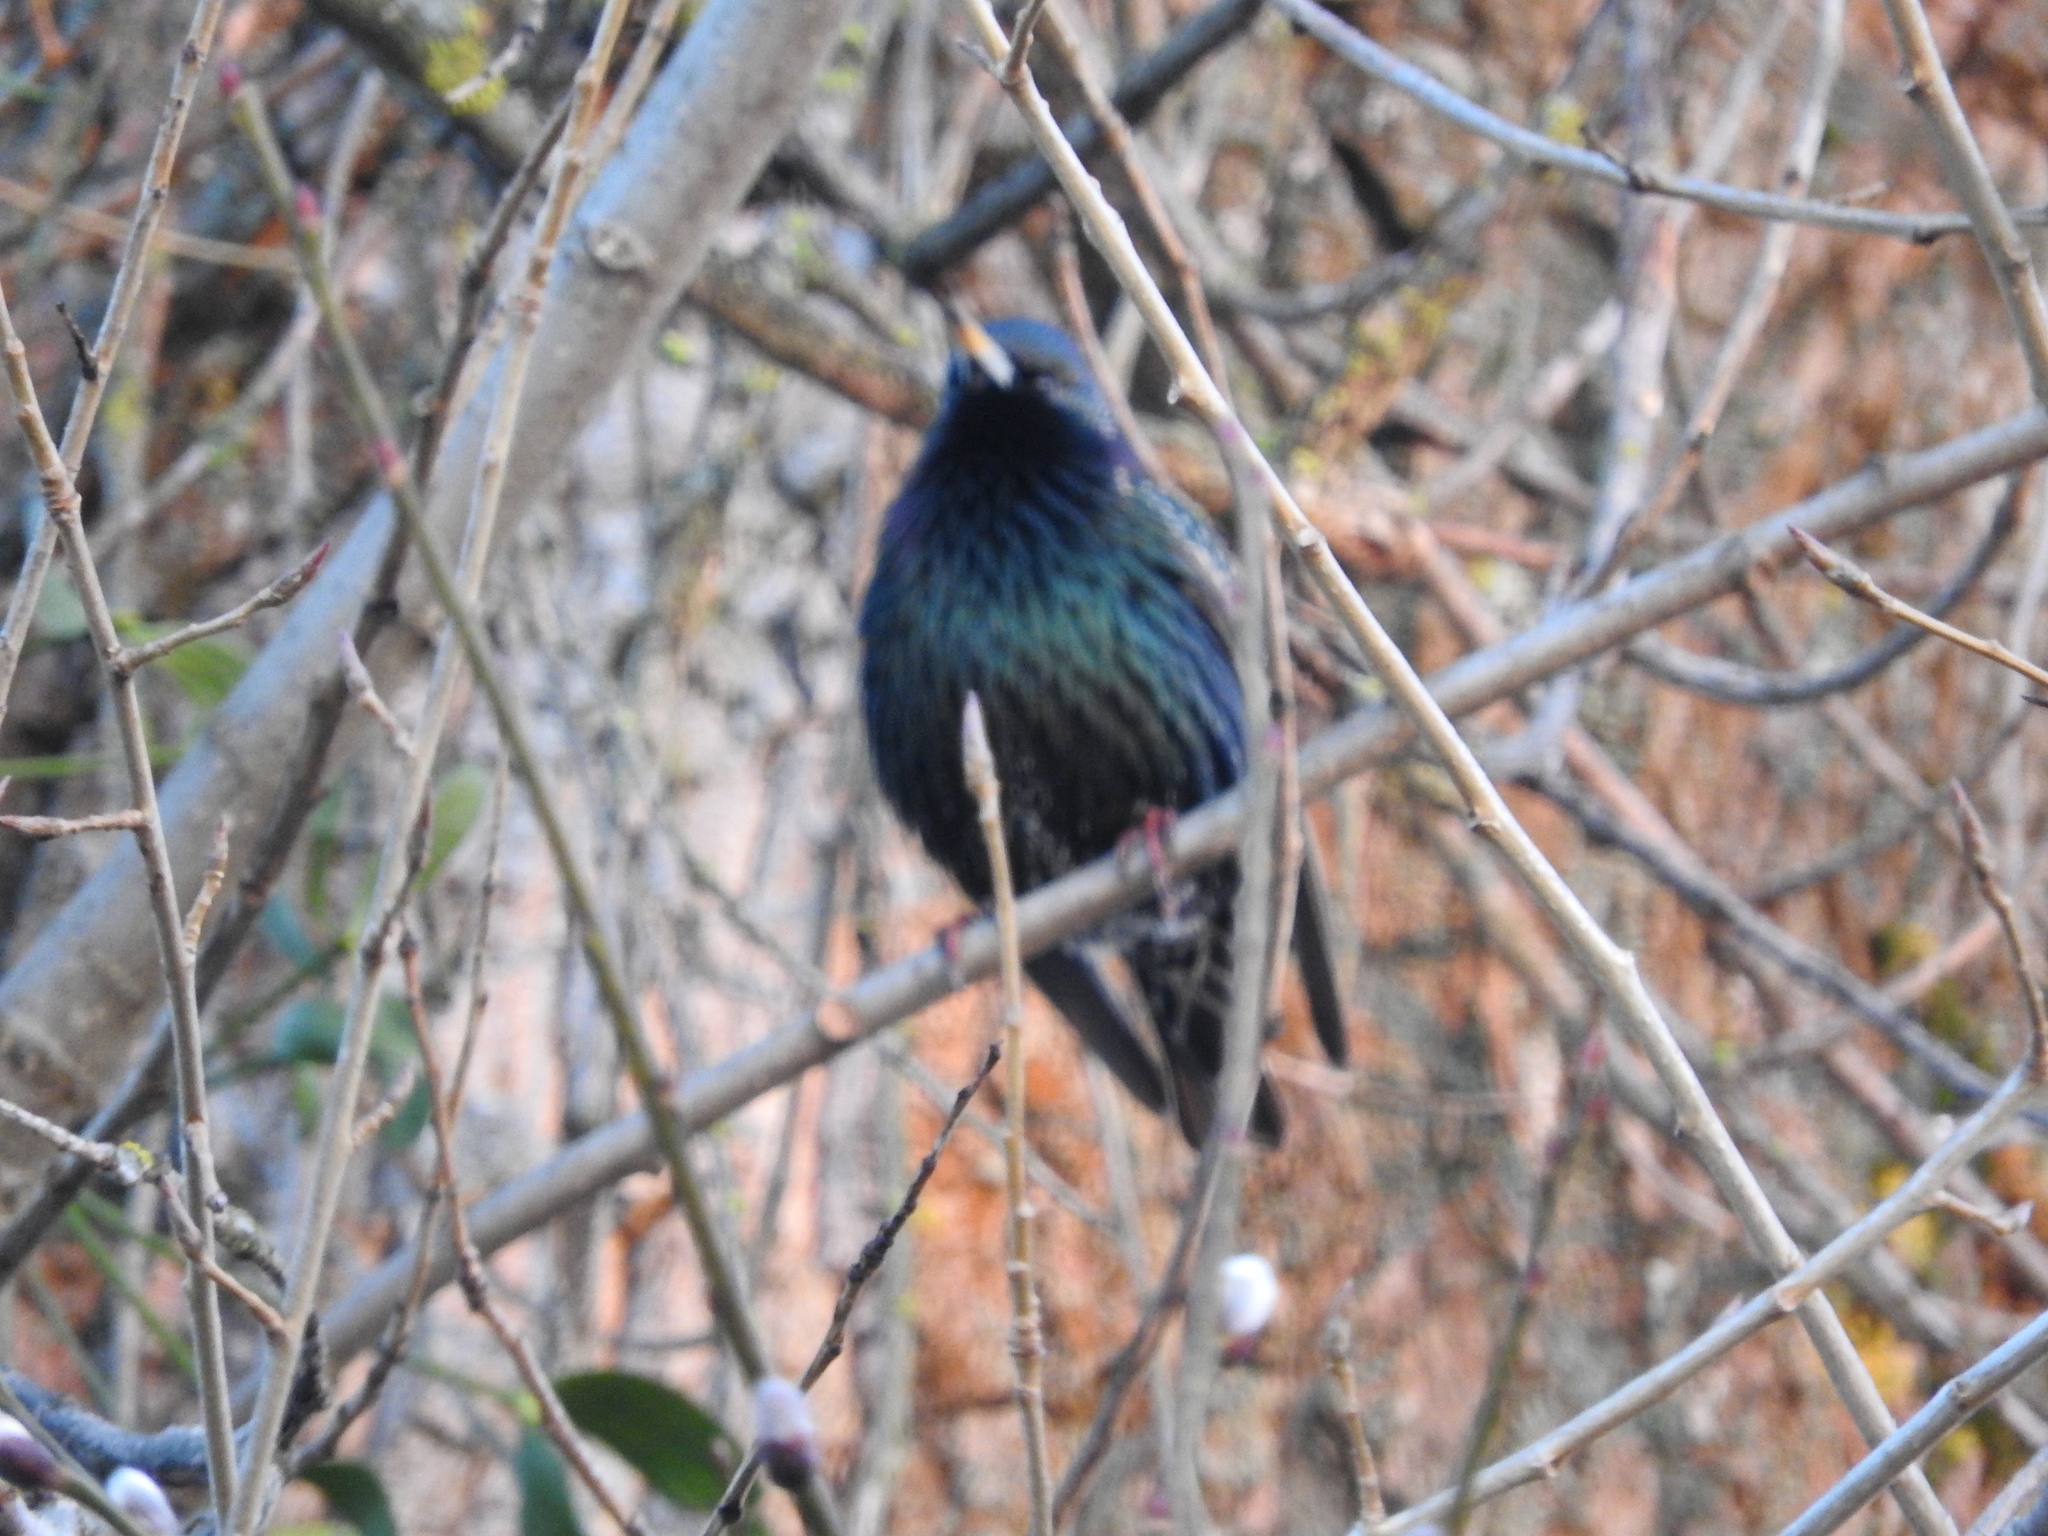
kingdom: Animalia
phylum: Chordata
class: Aves
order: Passeriformes
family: Sturnidae
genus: Sturnus
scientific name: Sturnus vulgaris
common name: Common starling
